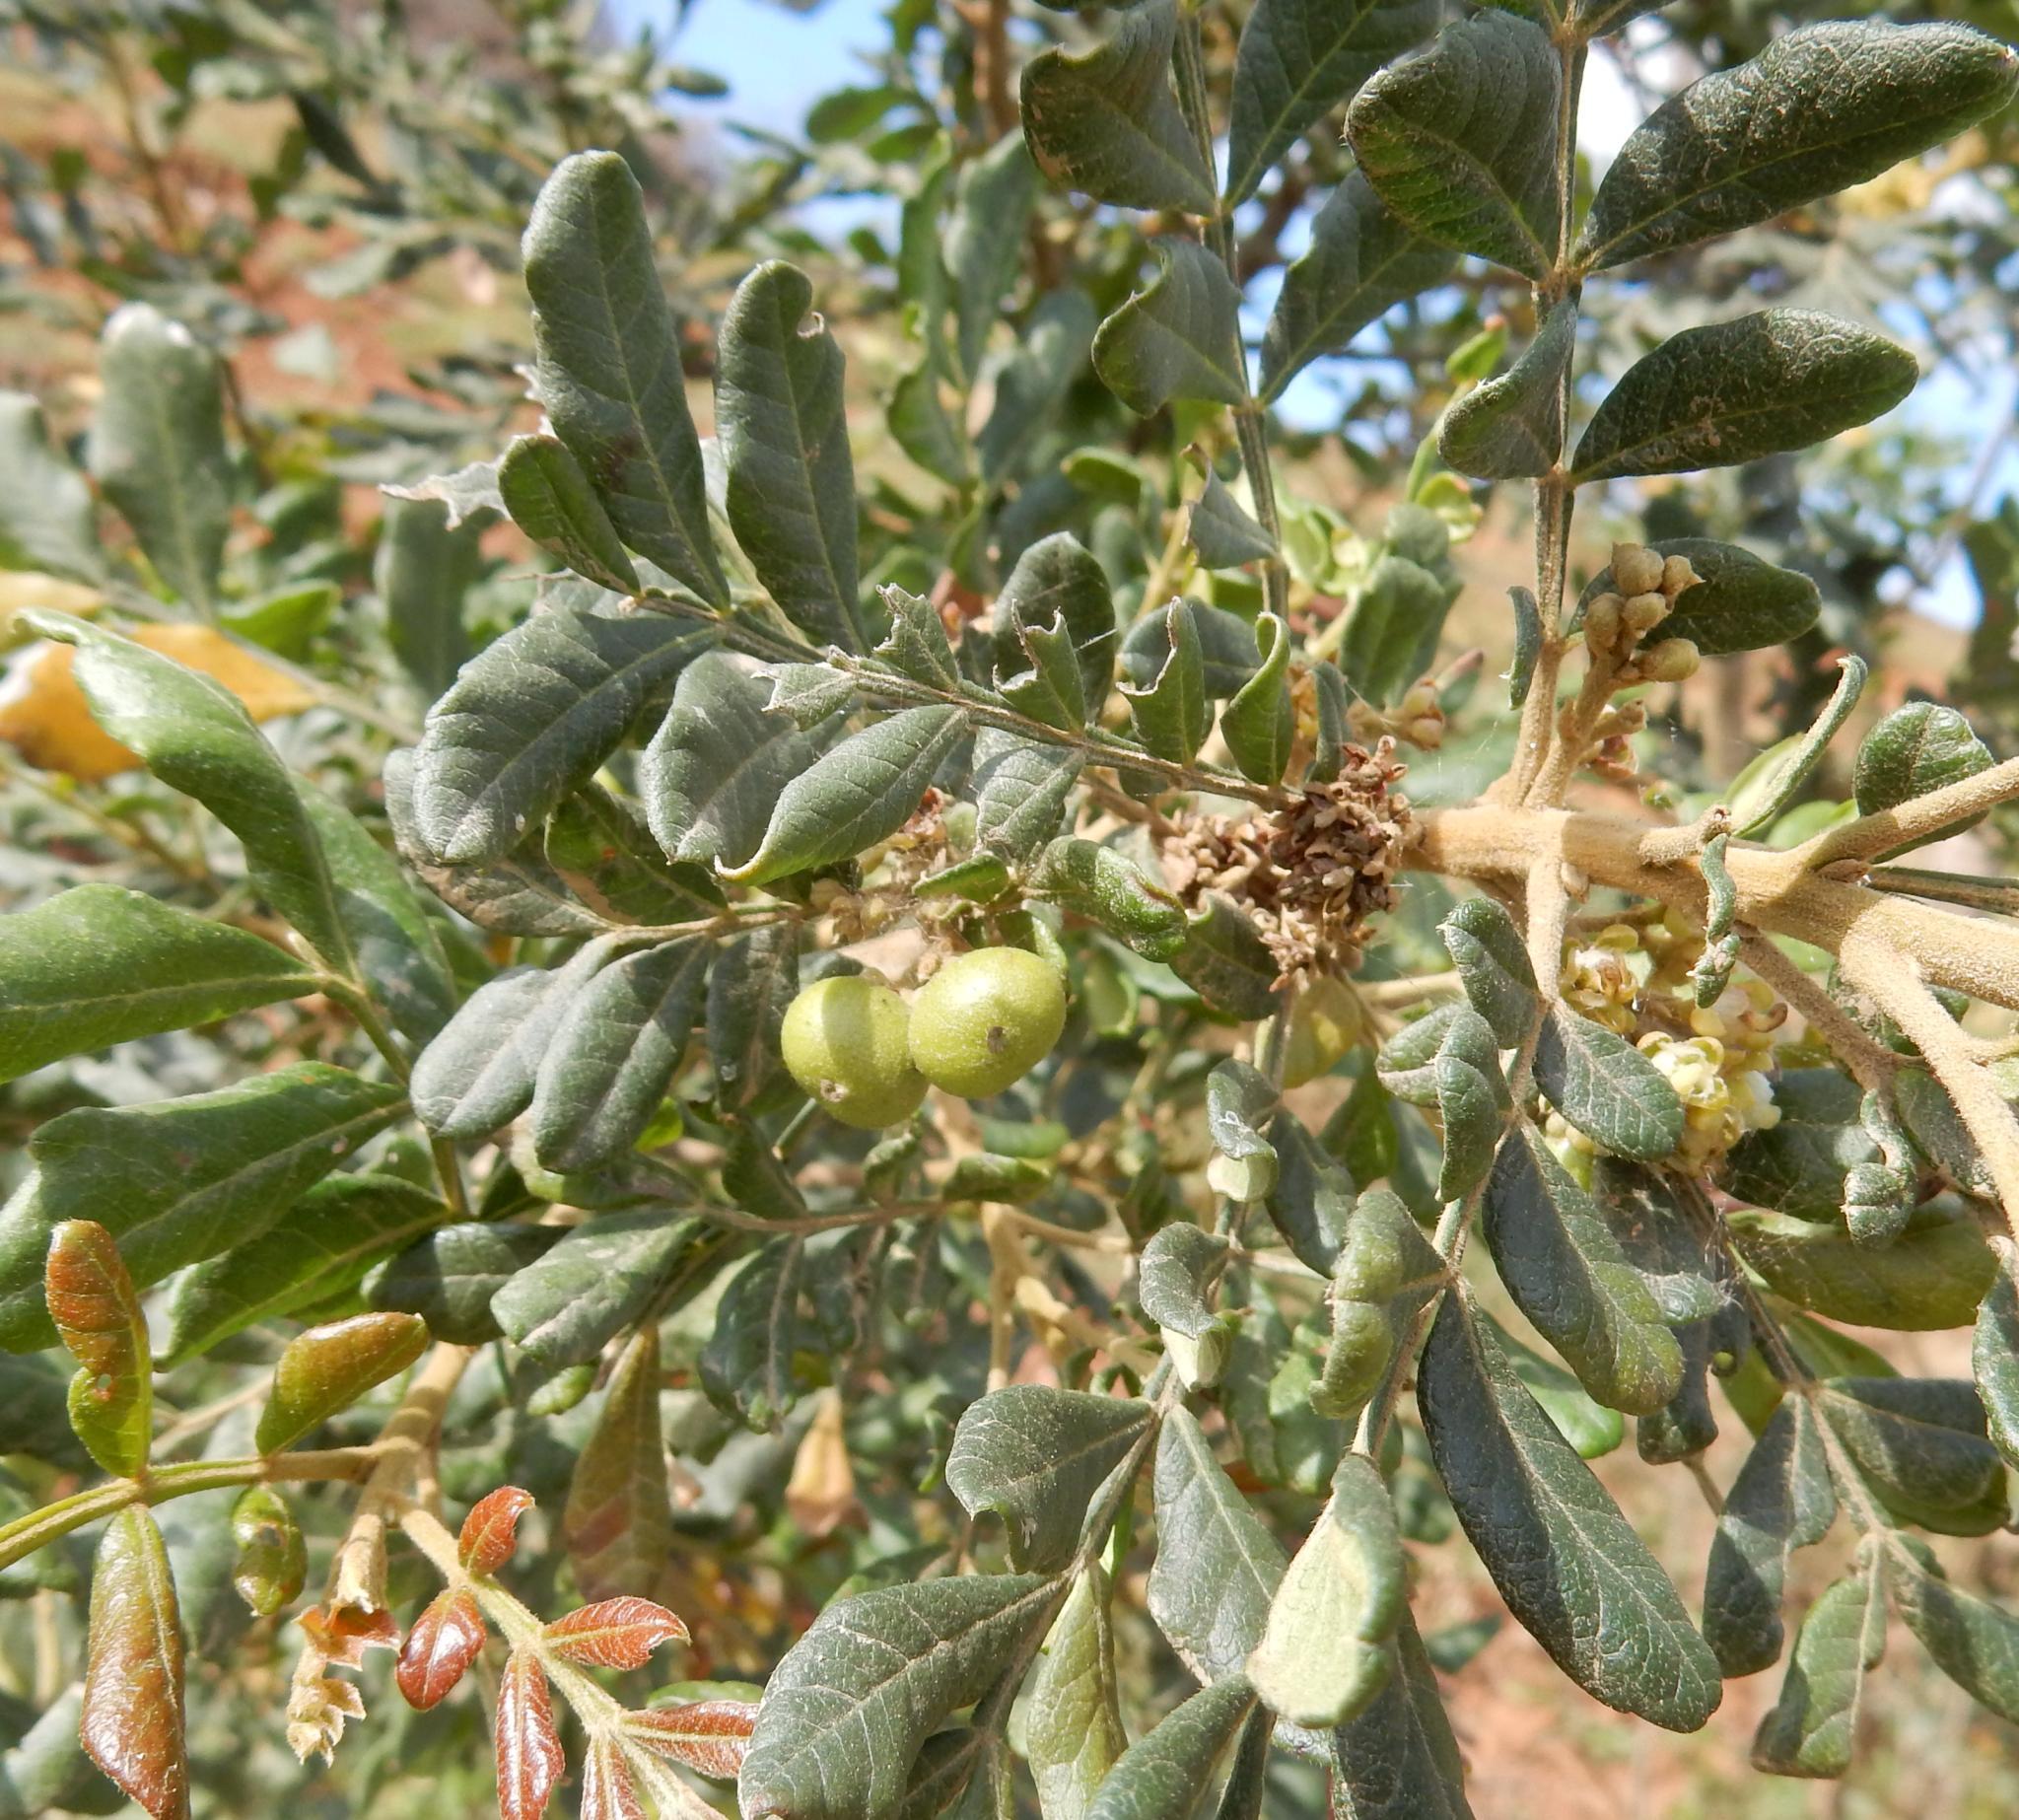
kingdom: Plantae
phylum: Tracheophyta
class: Magnoliopsida
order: Sapindales
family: Sapindaceae
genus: Hippobromus
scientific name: Hippobromus pauciflorus
